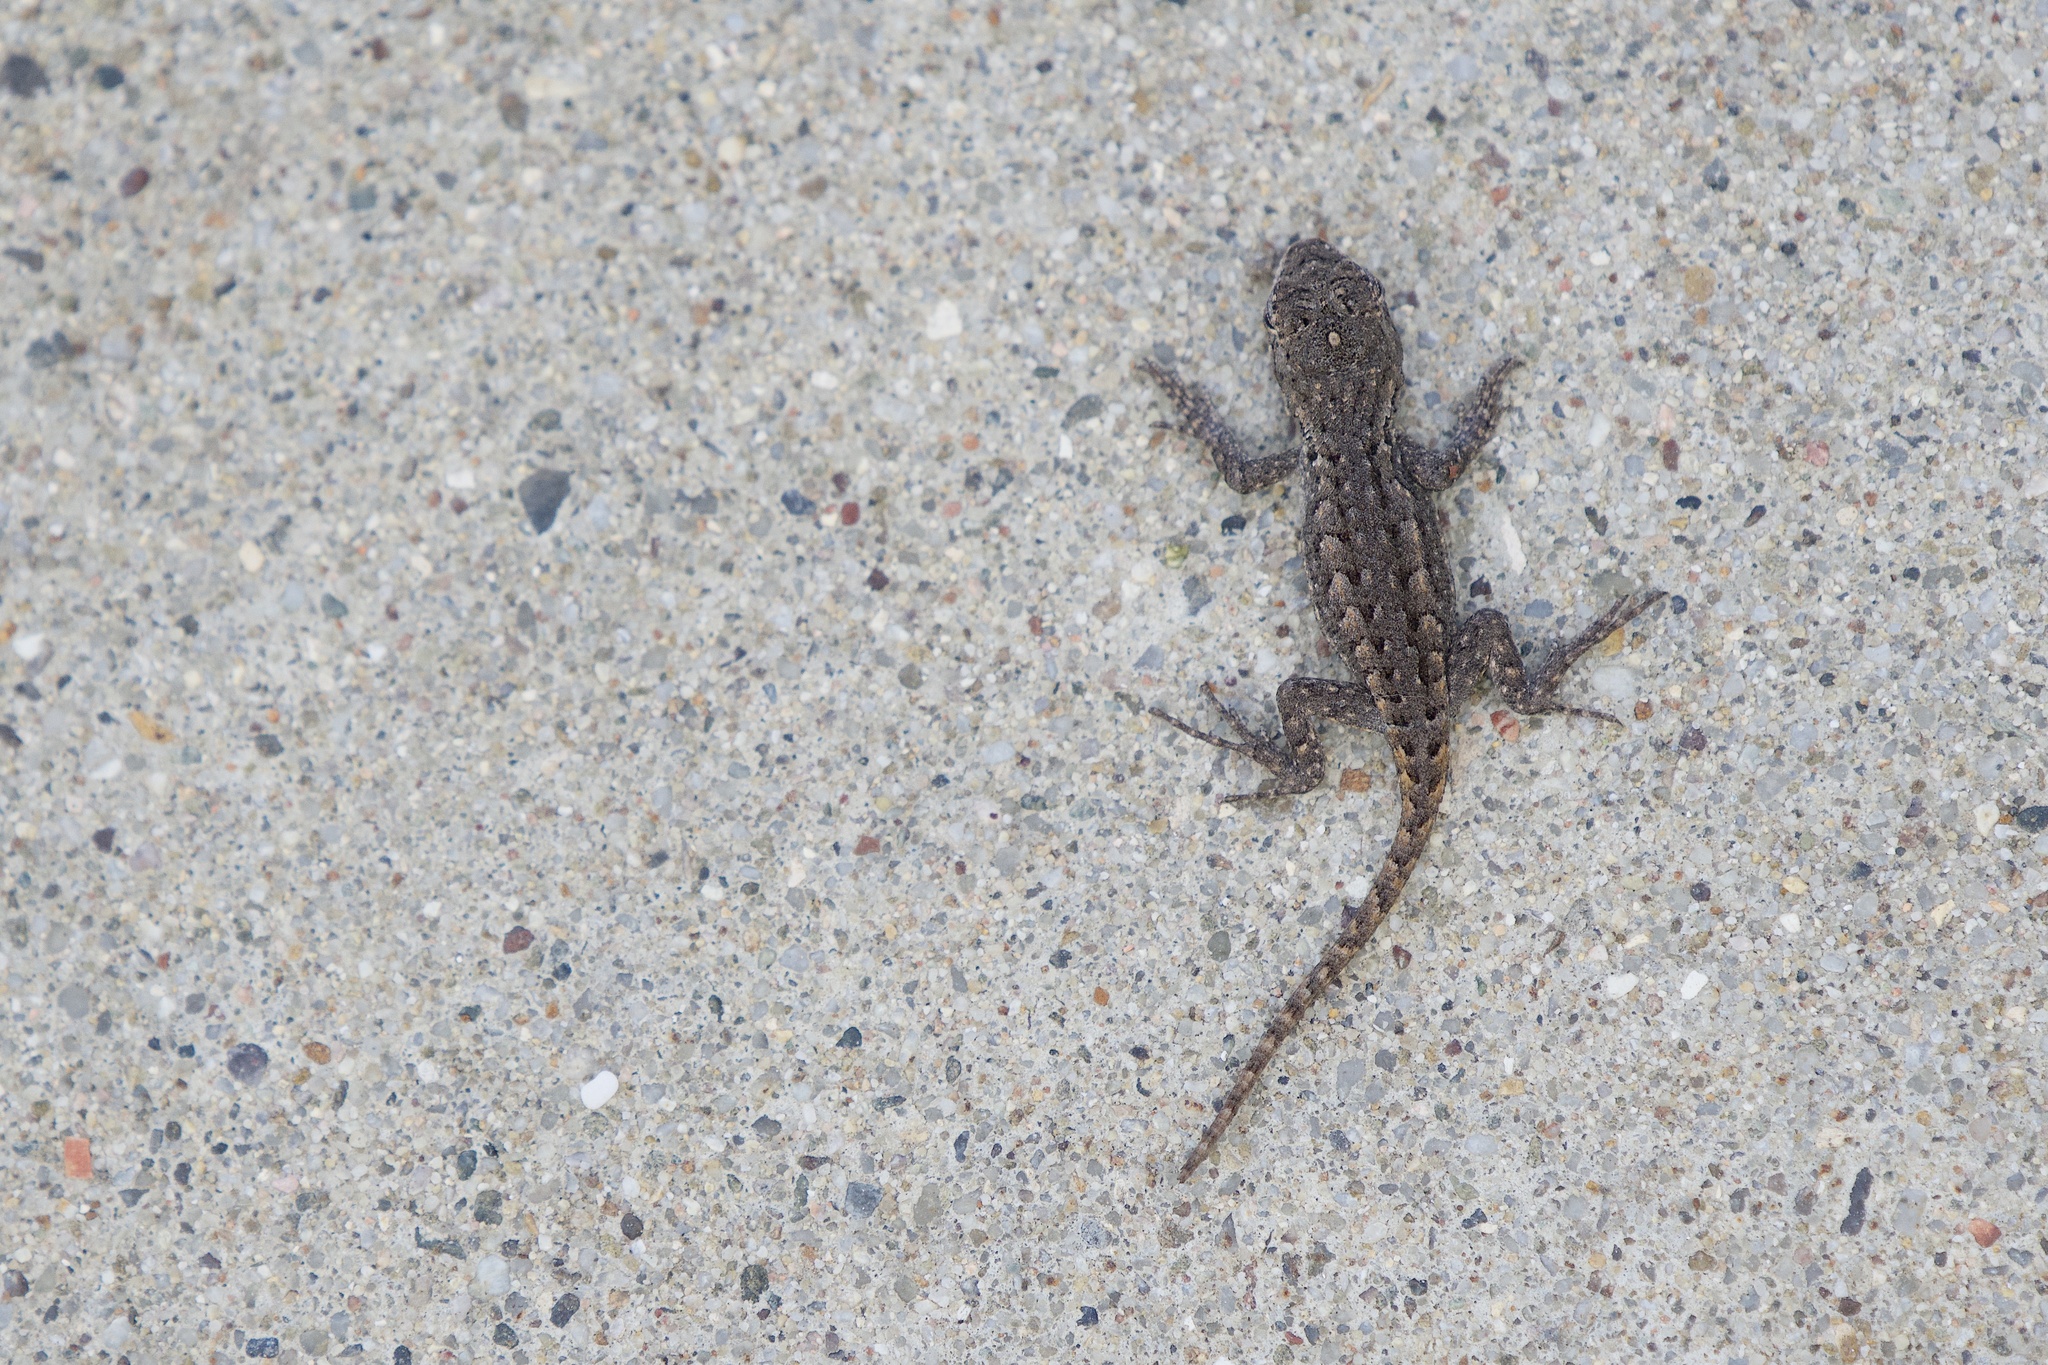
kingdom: Animalia
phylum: Chordata
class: Squamata
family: Phrynosomatidae
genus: Sceloporus
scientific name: Sceloporus occidentalis
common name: Western fence lizard
